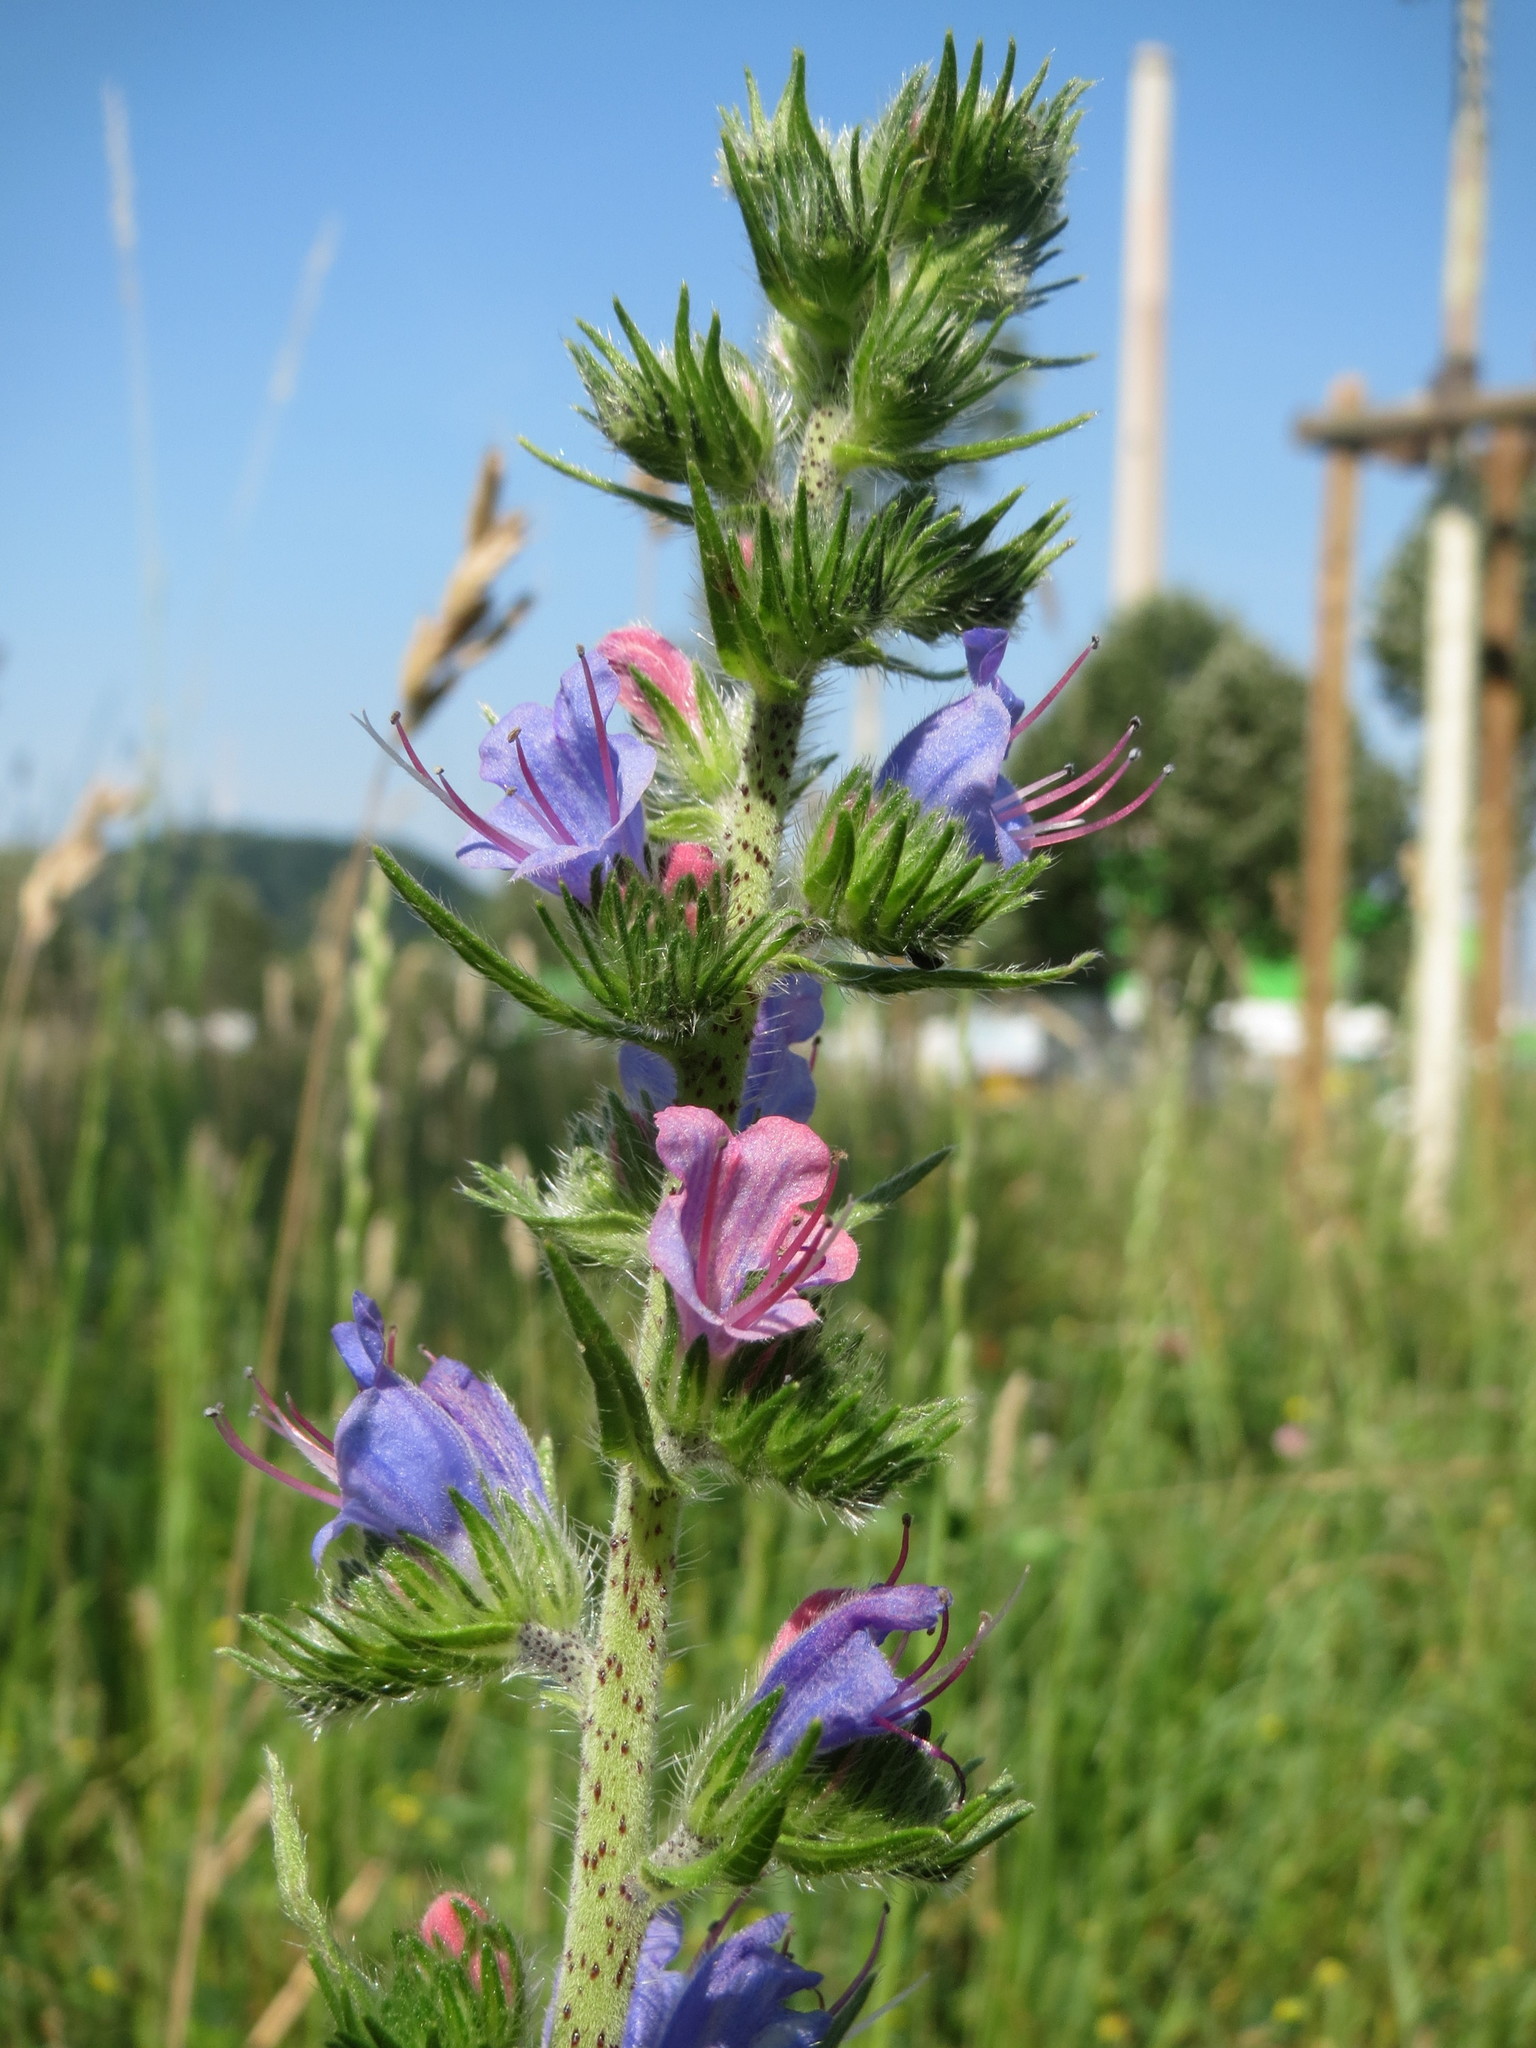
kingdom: Plantae
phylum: Tracheophyta
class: Magnoliopsida
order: Boraginales
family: Boraginaceae
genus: Echium
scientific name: Echium vulgare
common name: Common viper's bugloss
